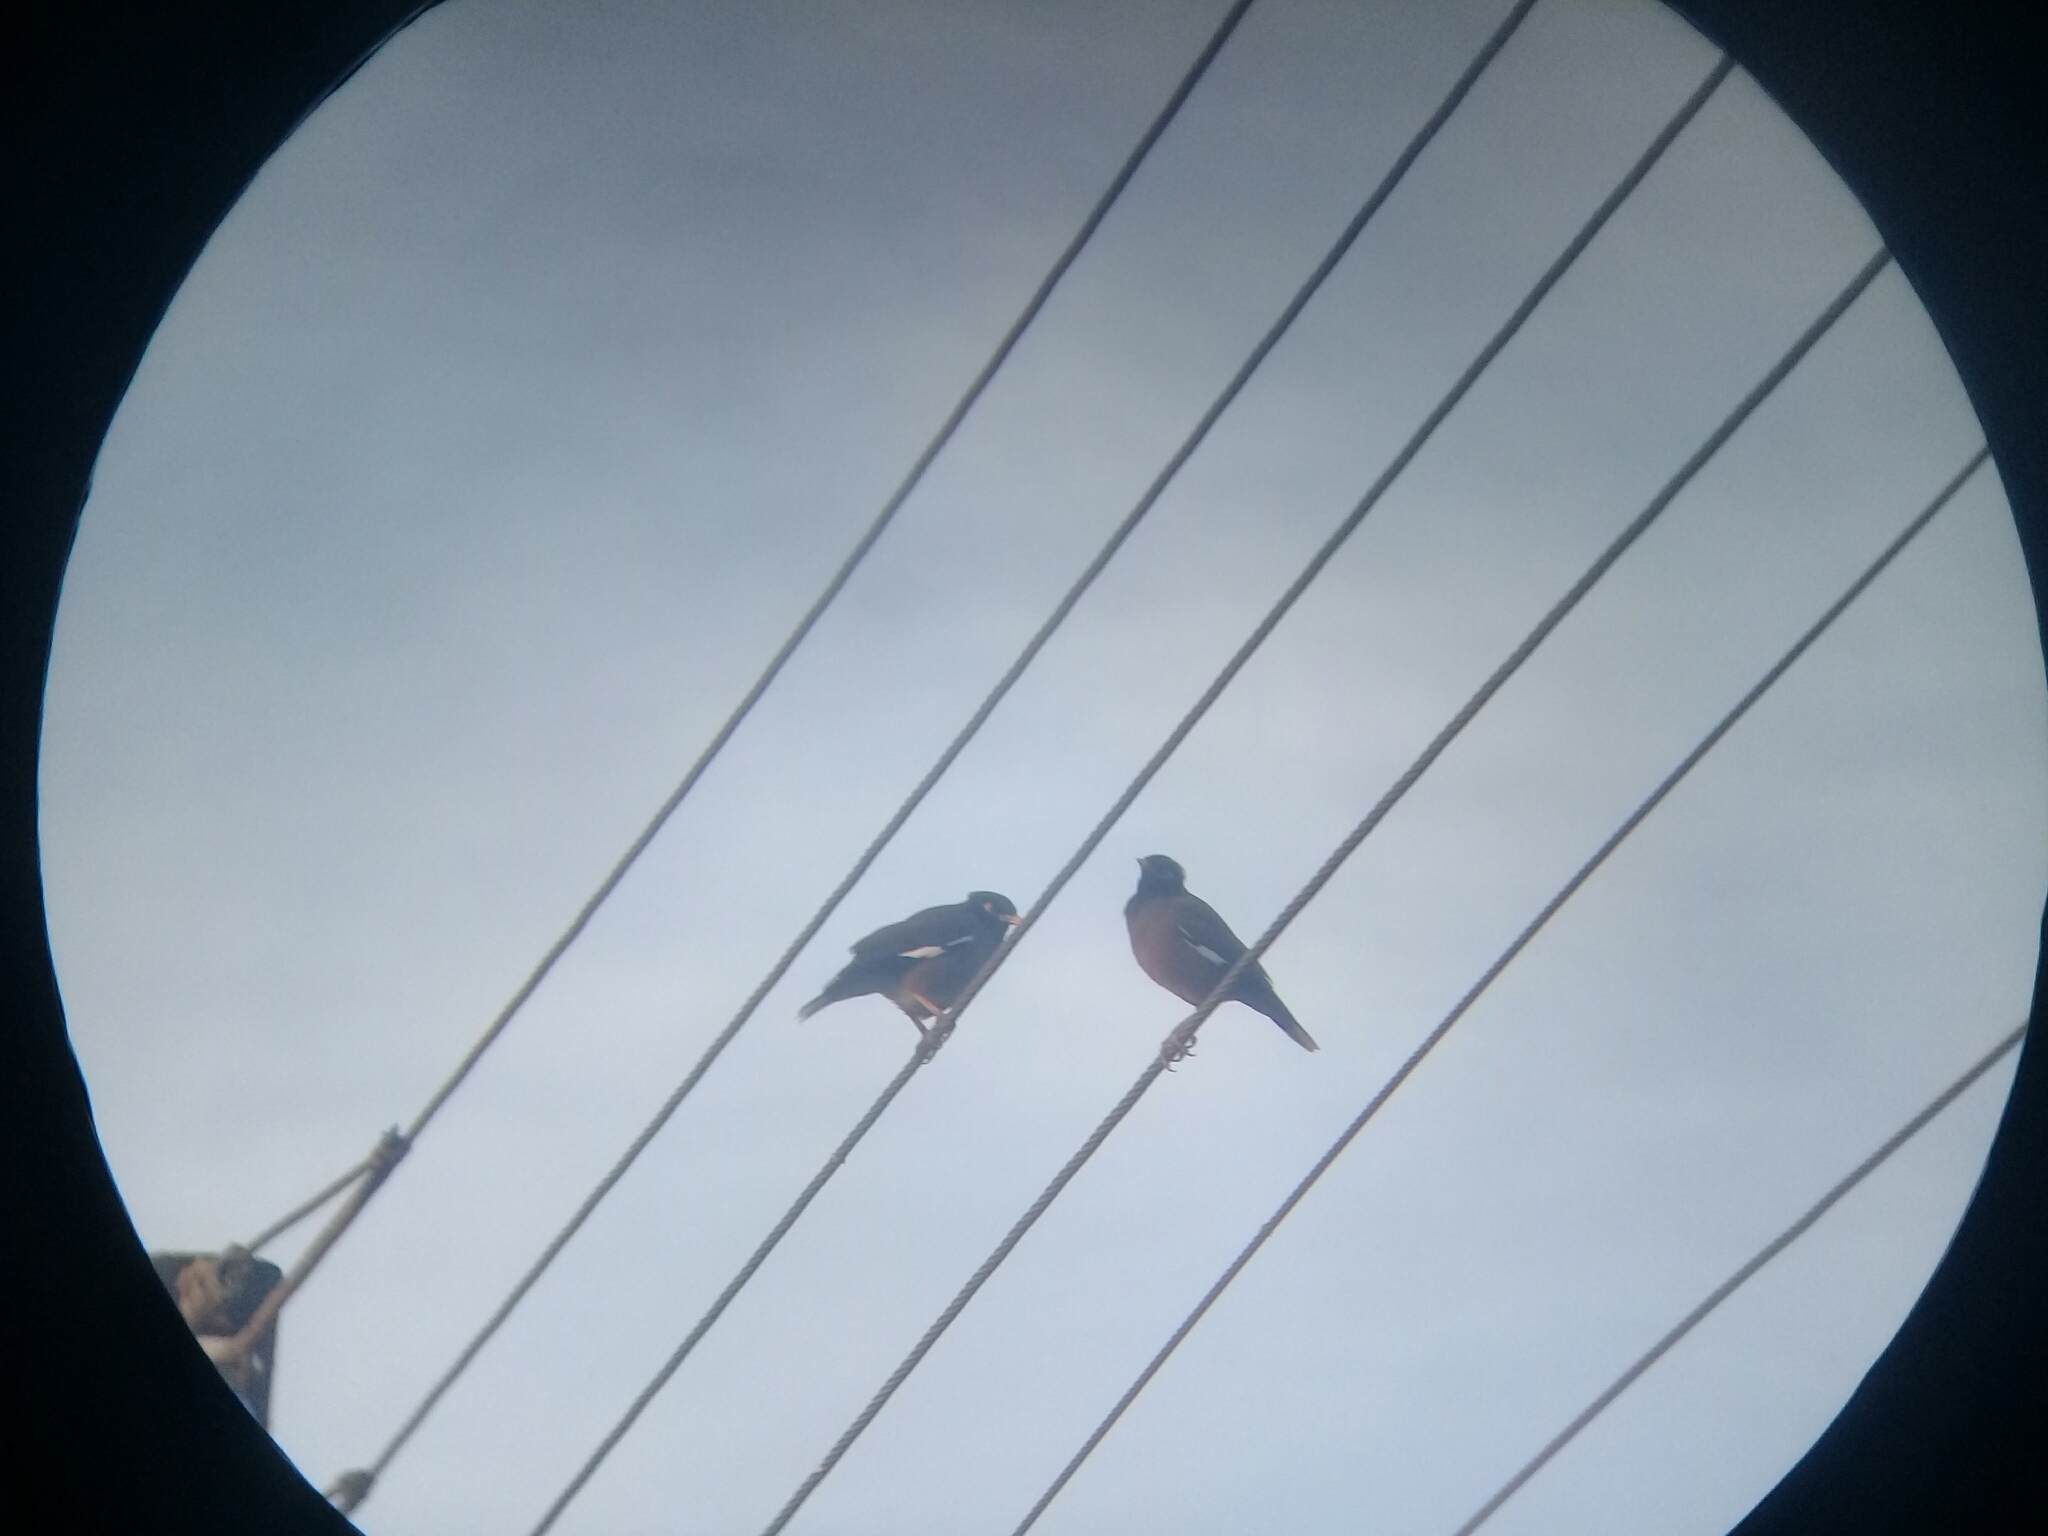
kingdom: Animalia
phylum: Chordata
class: Aves
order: Passeriformes
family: Sturnidae
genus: Acridotheres
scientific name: Acridotheres tristis
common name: Common myna
